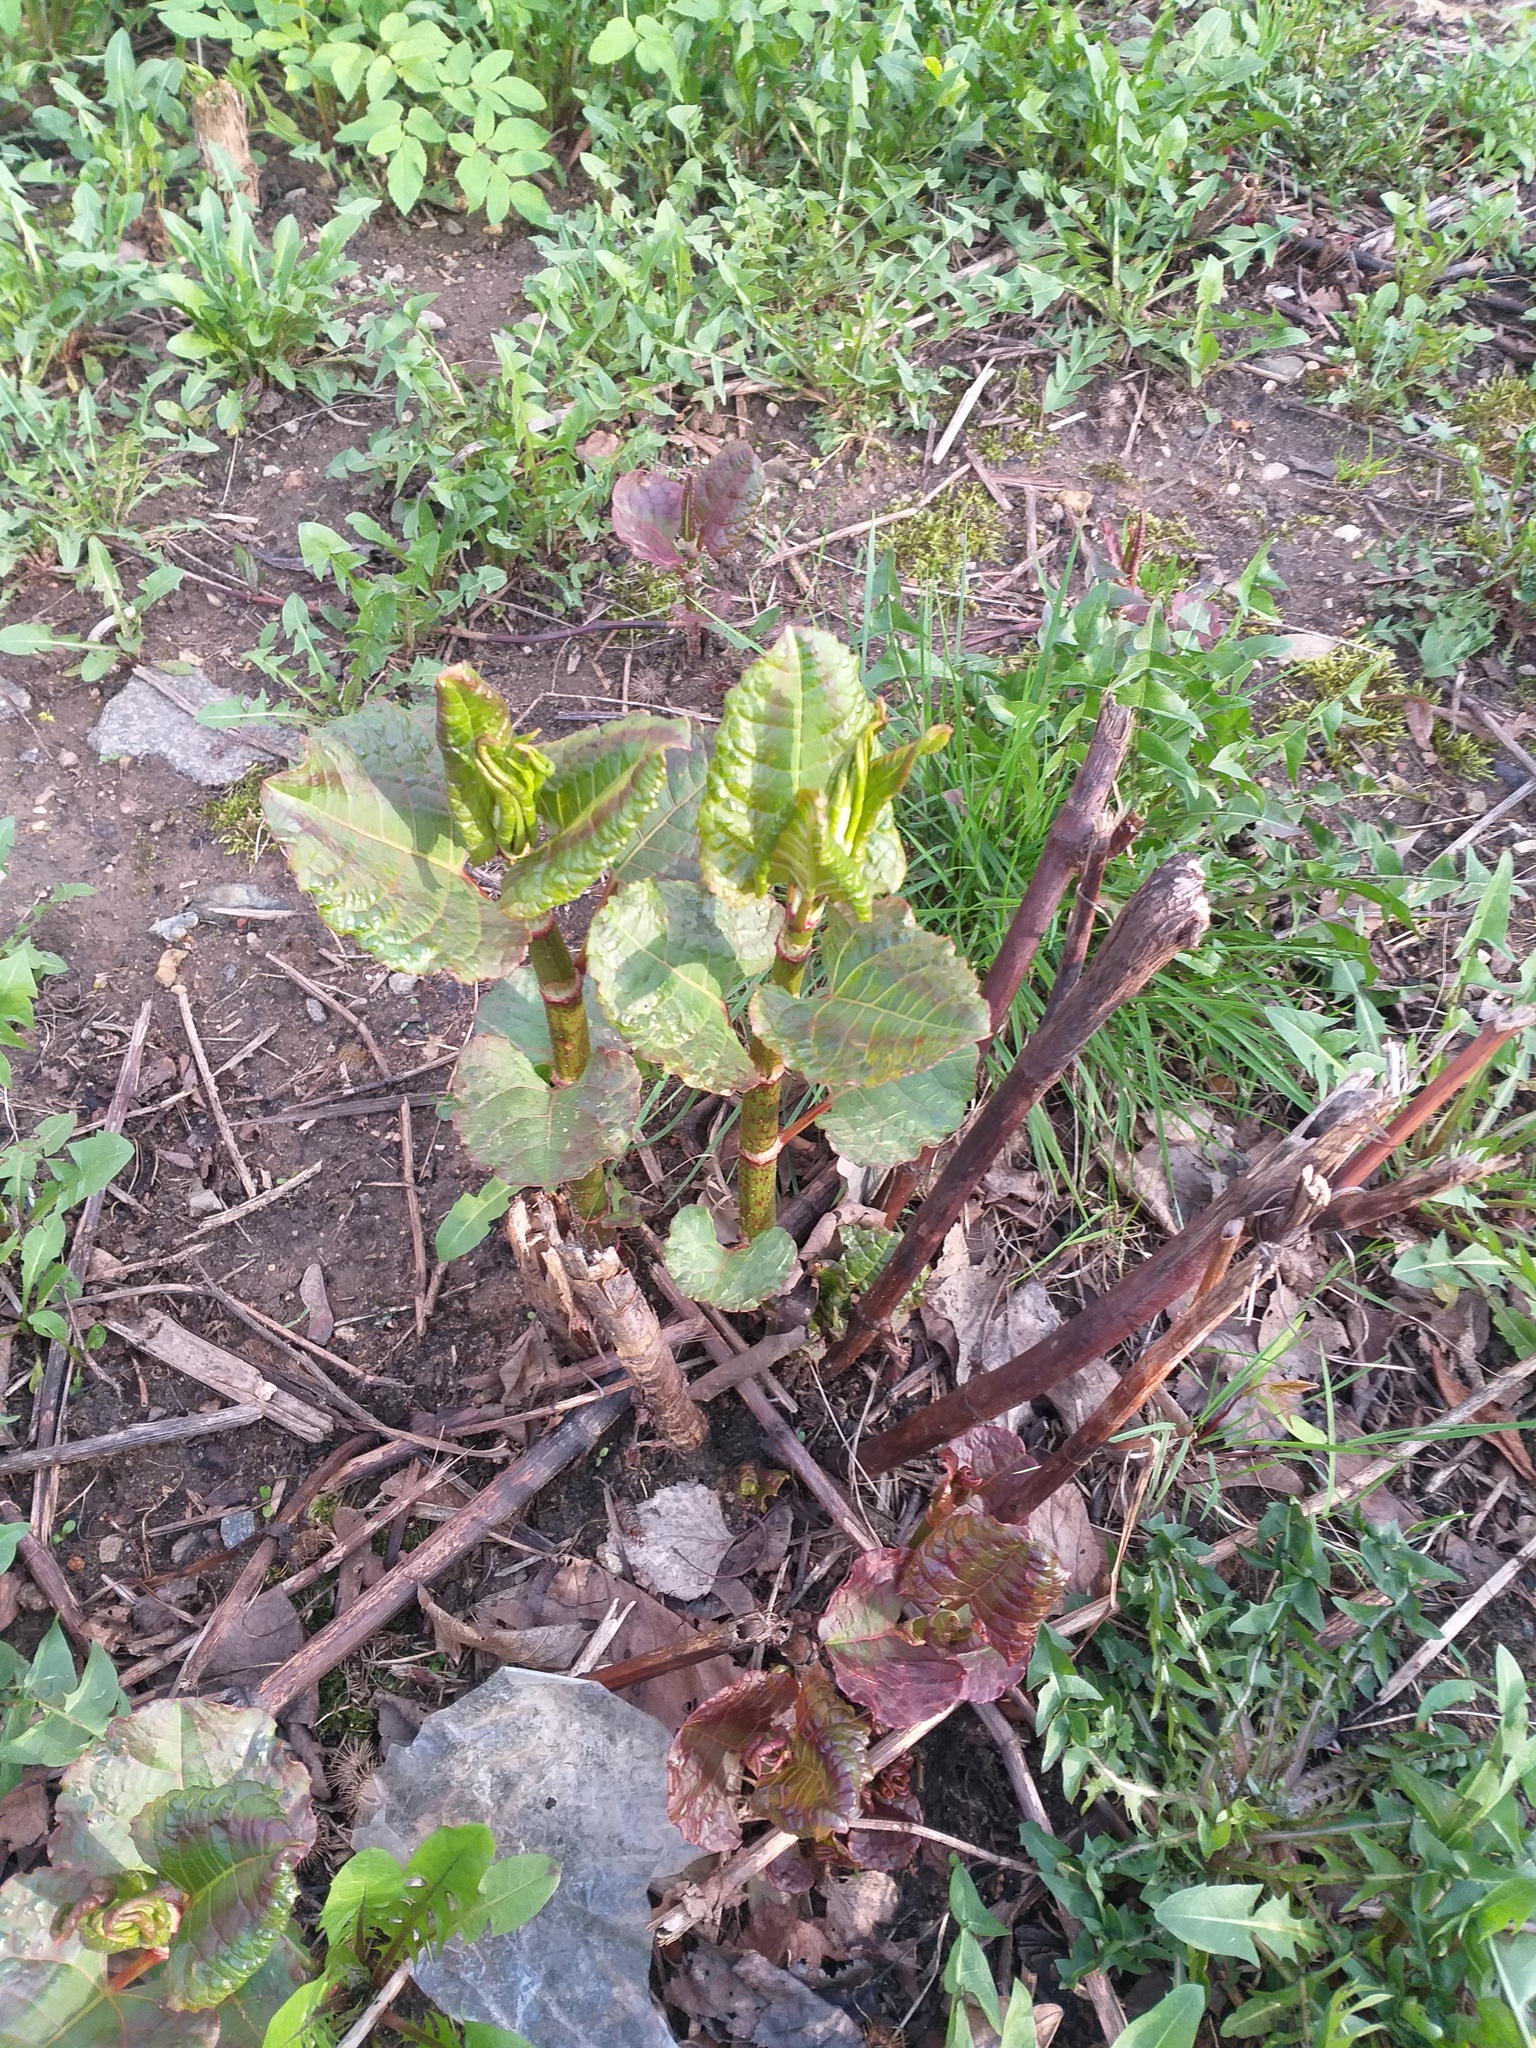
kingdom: Plantae
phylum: Tracheophyta
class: Magnoliopsida
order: Caryophyllales
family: Polygonaceae
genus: Reynoutria
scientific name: Reynoutria bohemica
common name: Bohemian knotweed
